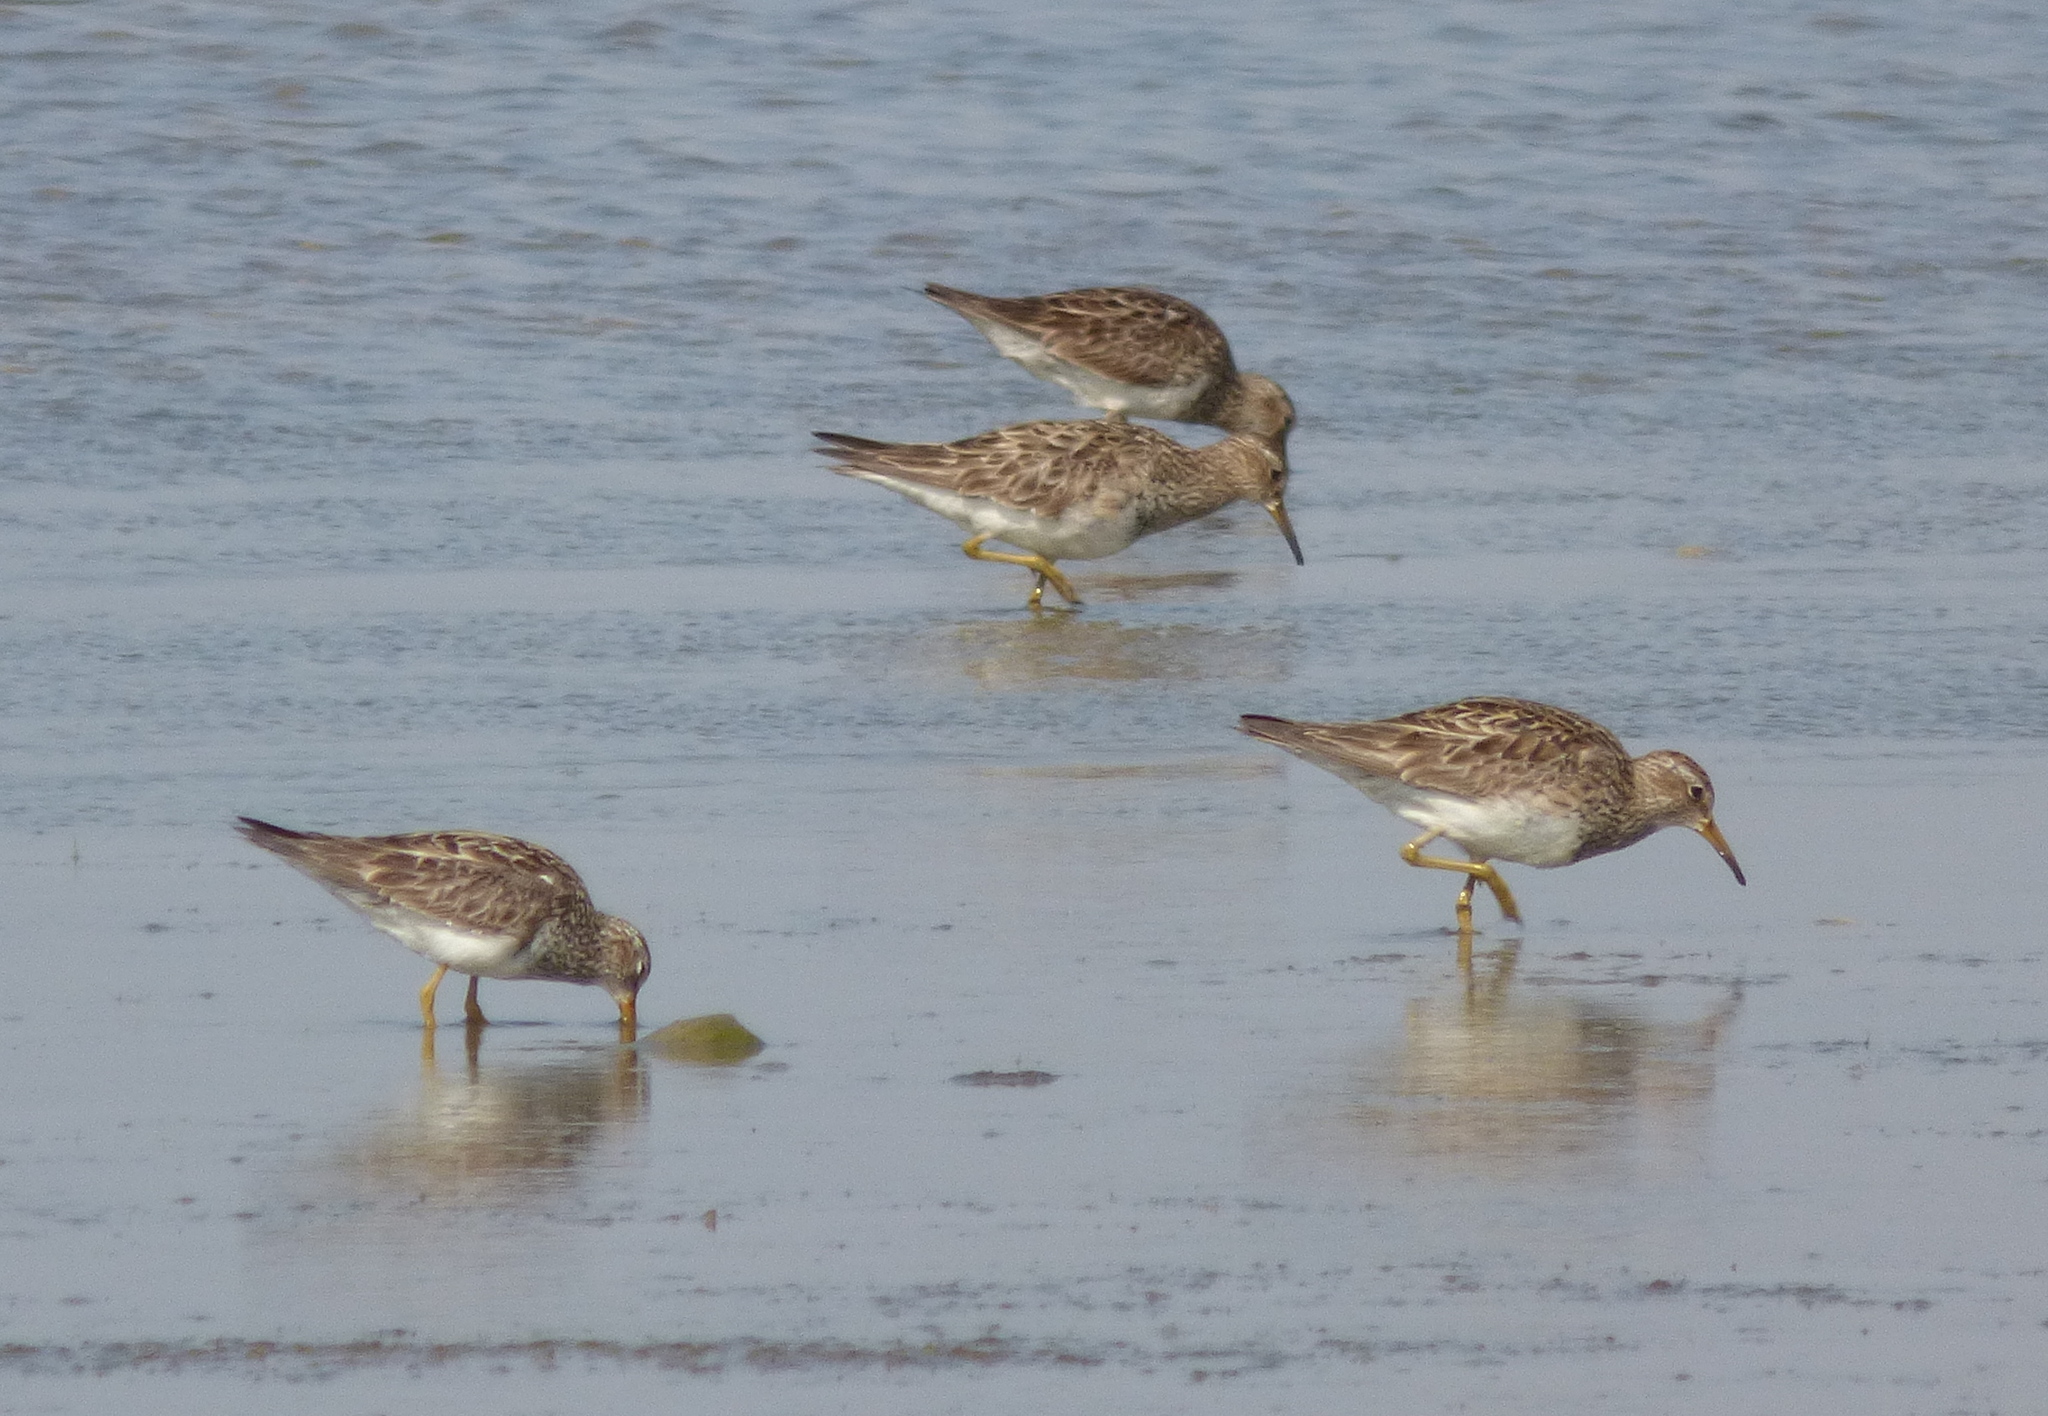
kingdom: Animalia
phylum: Chordata
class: Aves
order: Charadriiformes
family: Scolopacidae
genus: Calidris
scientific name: Calidris melanotos
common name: Pectoral sandpiper
